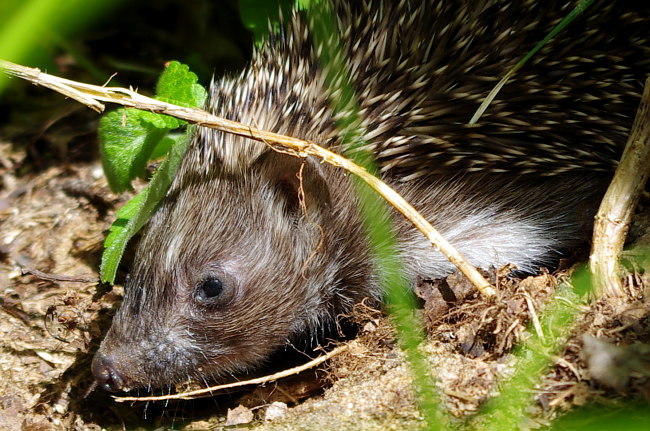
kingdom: Animalia
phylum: Chordata
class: Mammalia
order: Erinaceomorpha
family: Erinaceidae
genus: Erinaceus
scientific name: Erinaceus roumanicus
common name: Northern white-breasted hedgehog
